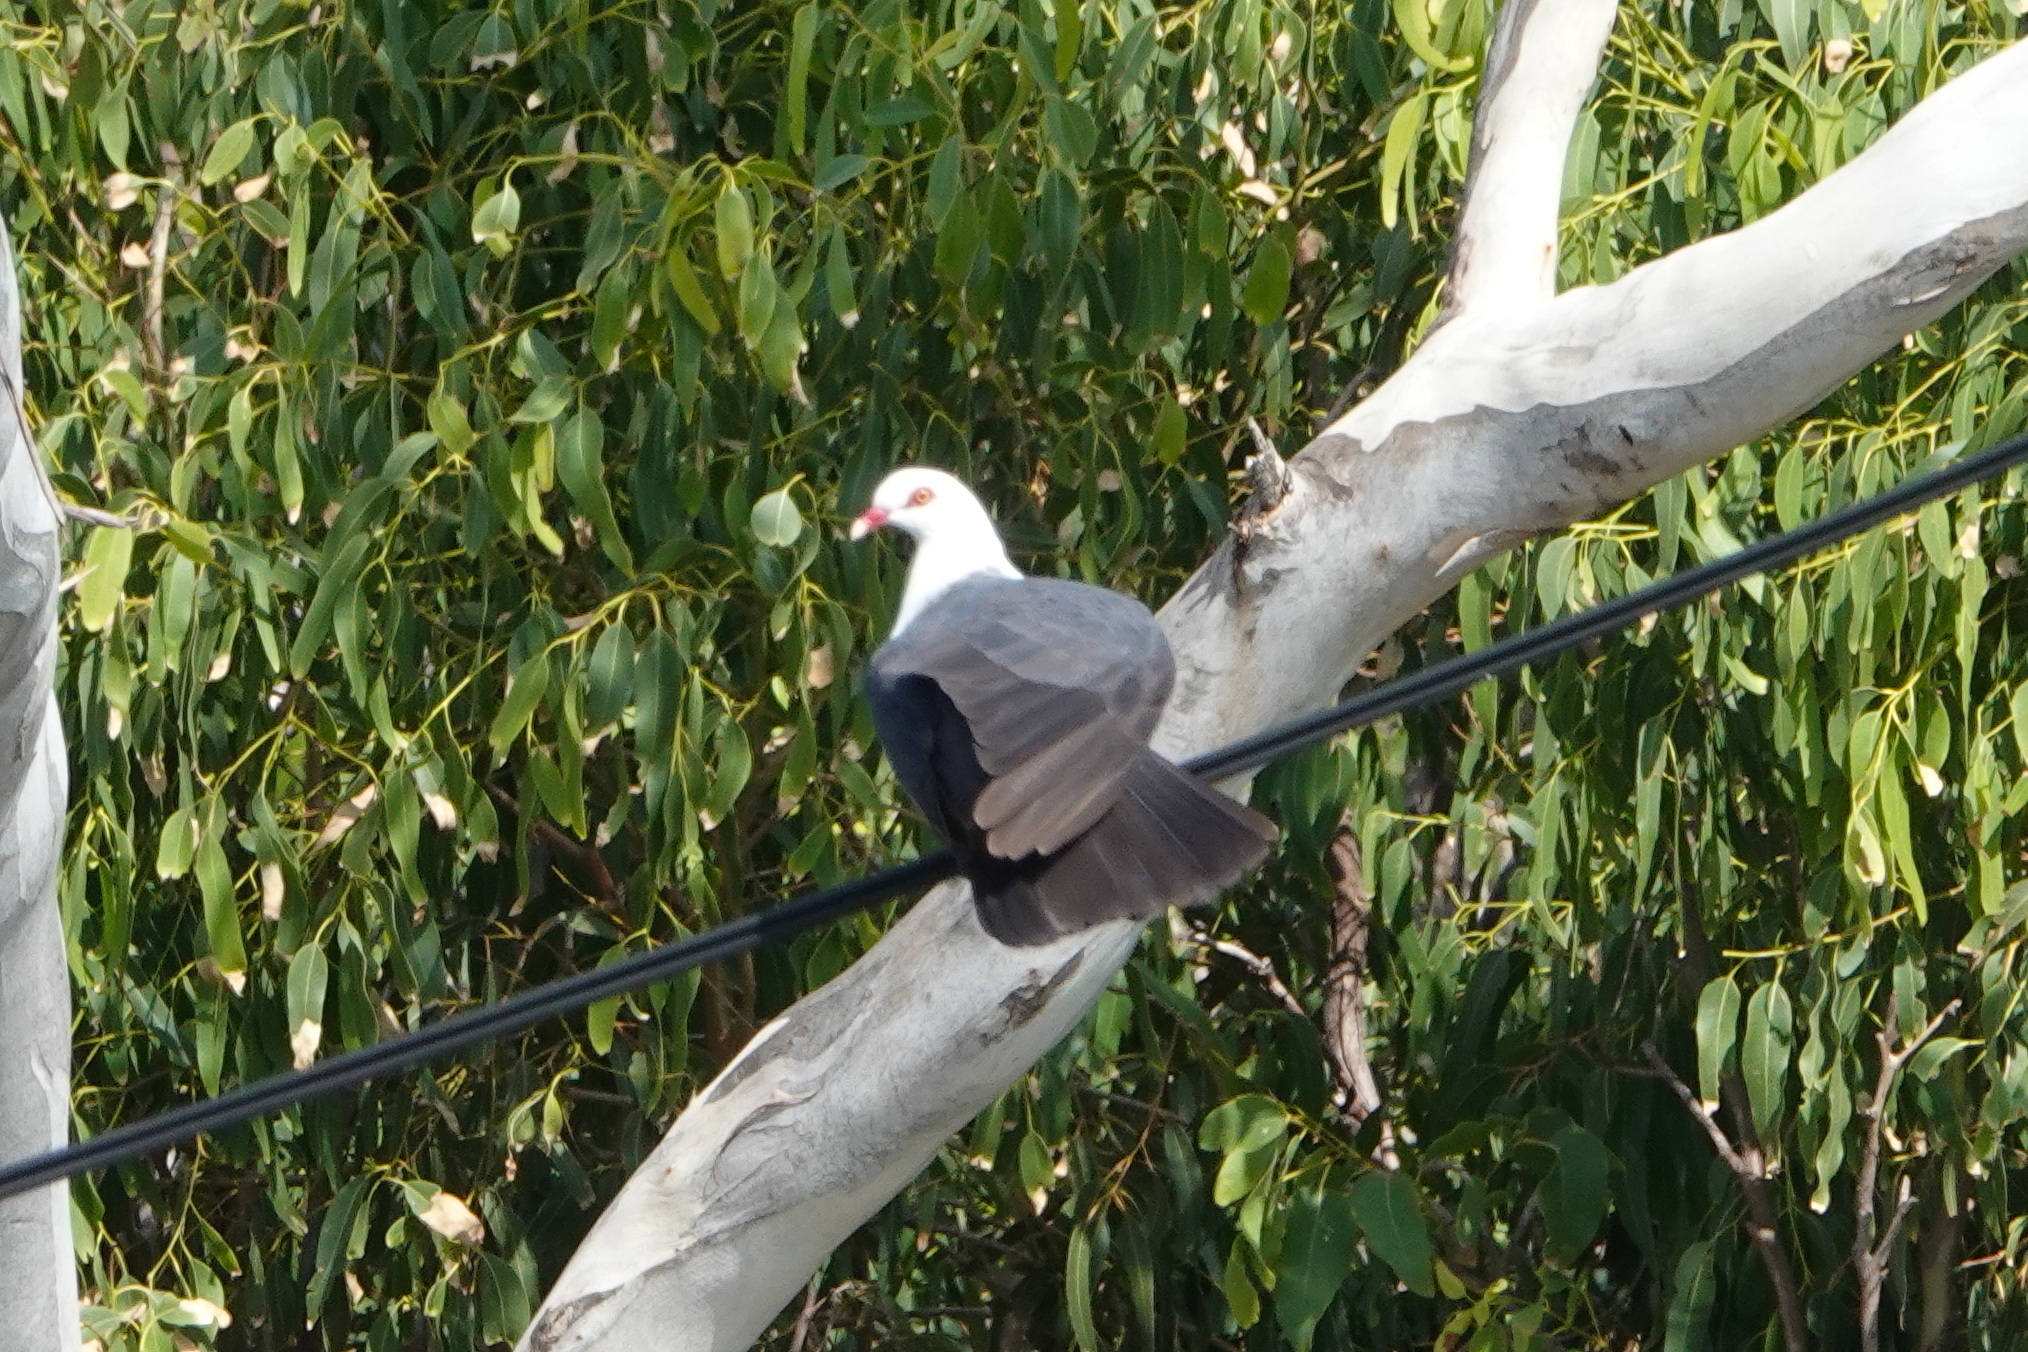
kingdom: Animalia
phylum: Chordata
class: Aves
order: Columbiformes
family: Columbidae
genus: Columba
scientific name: Columba leucomela
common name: White-headed pigeon
